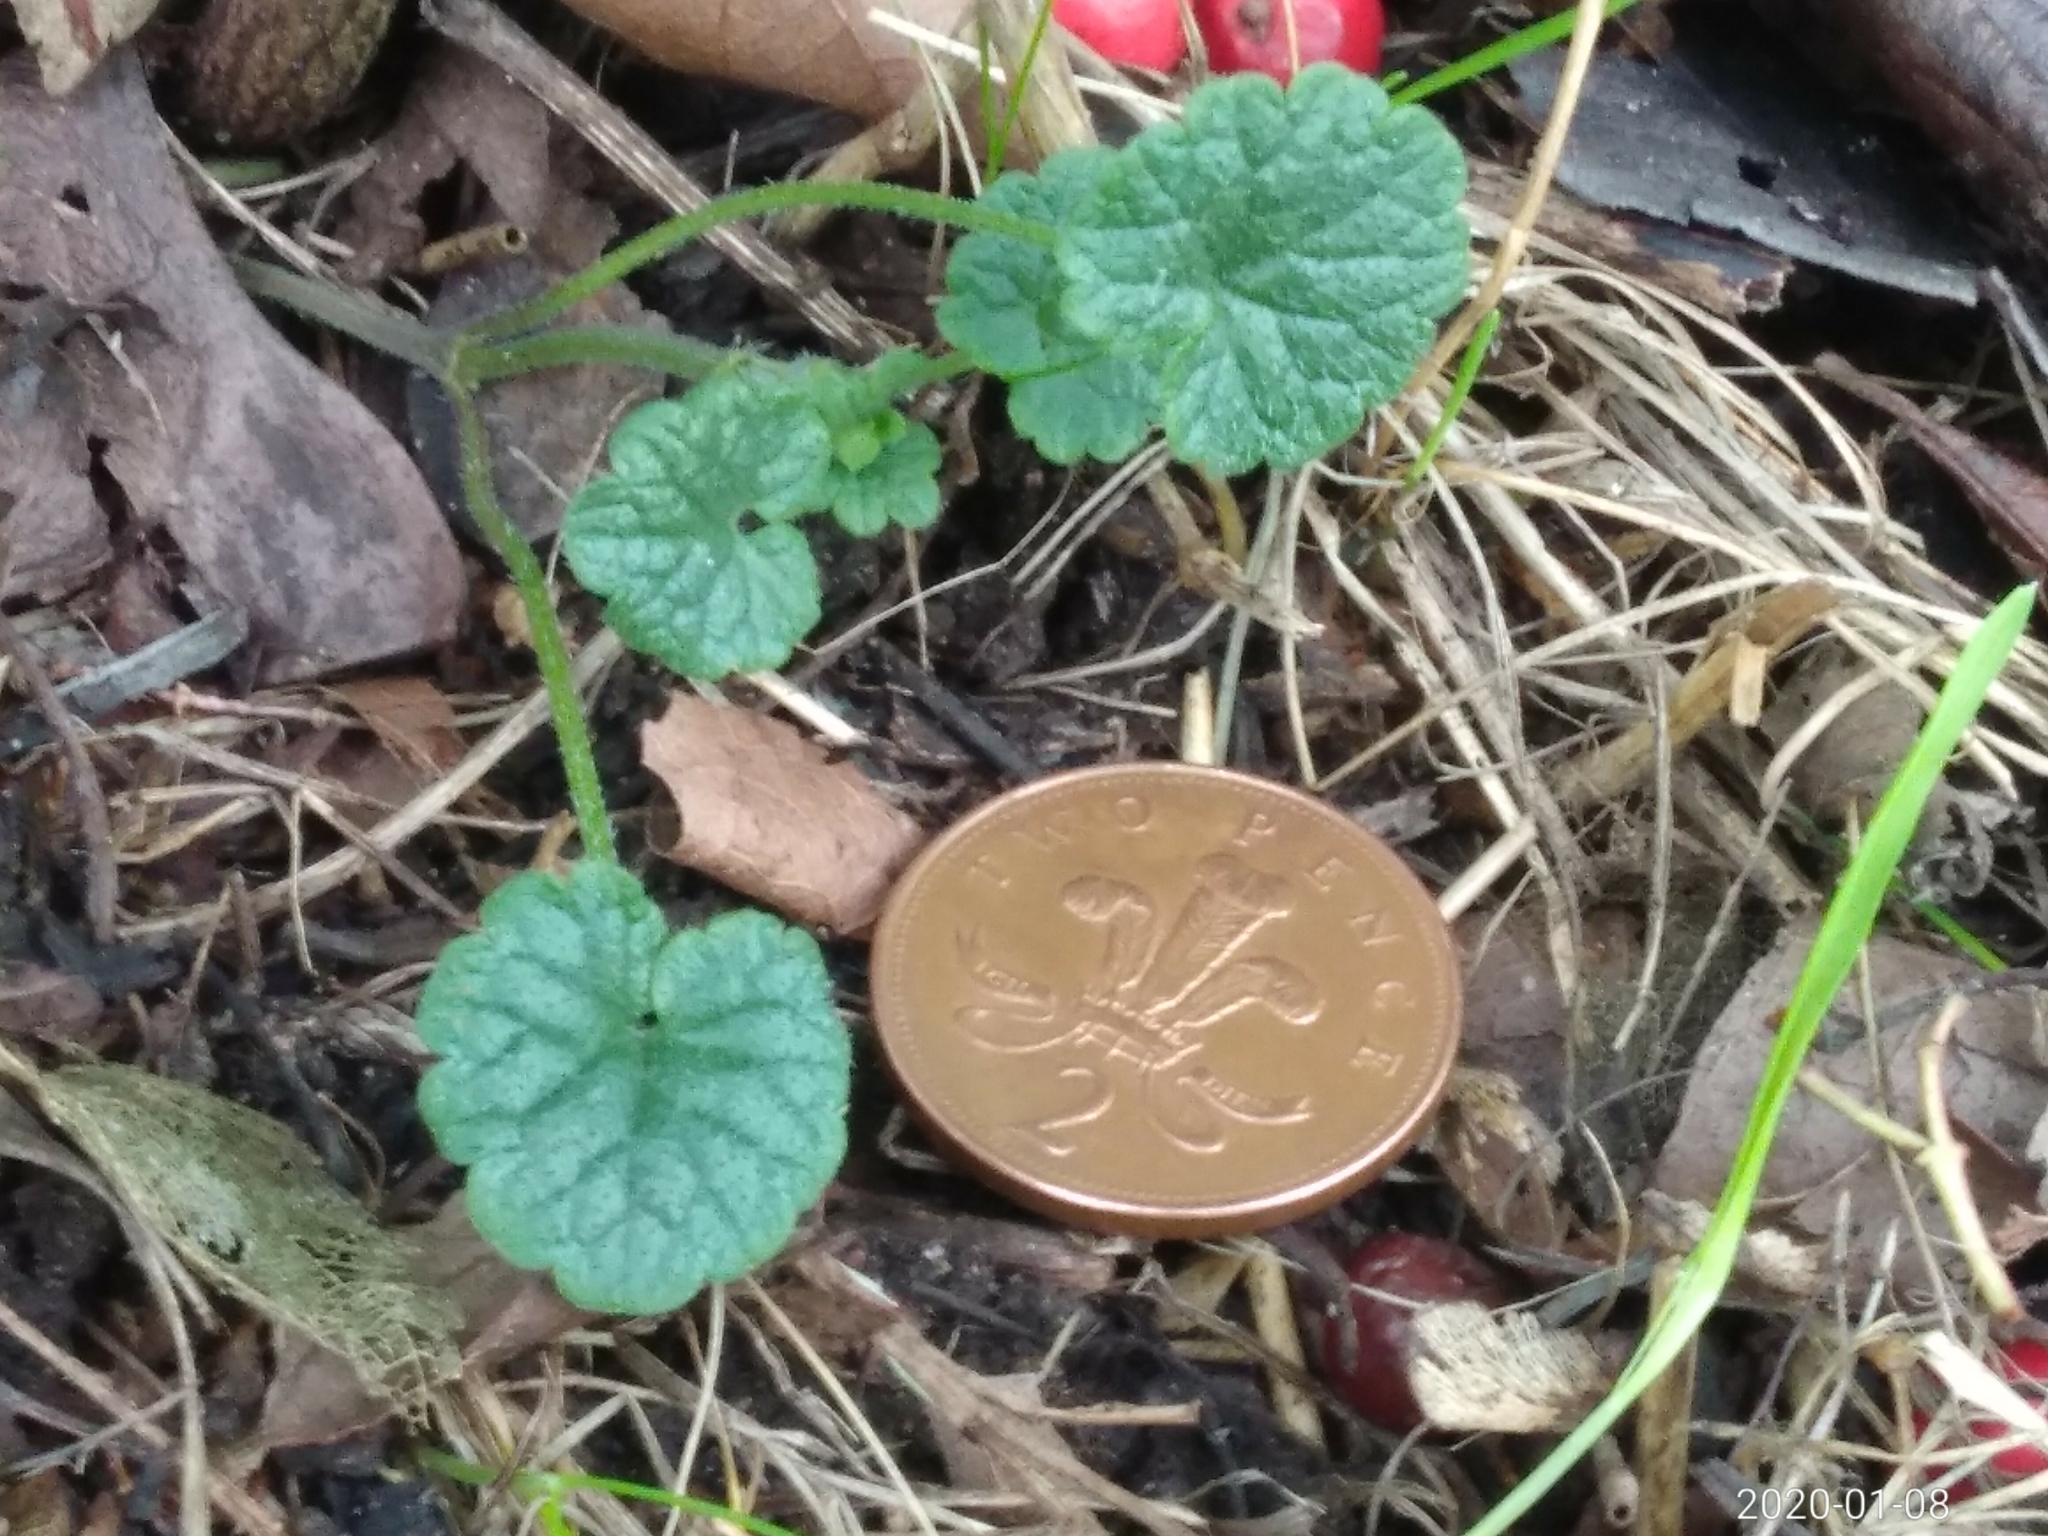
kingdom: Plantae
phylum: Tracheophyta
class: Magnoliopsida
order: Lamiales
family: Lamiaceae
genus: Glechoma
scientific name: Glechoma hederacea
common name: Ground ivy
